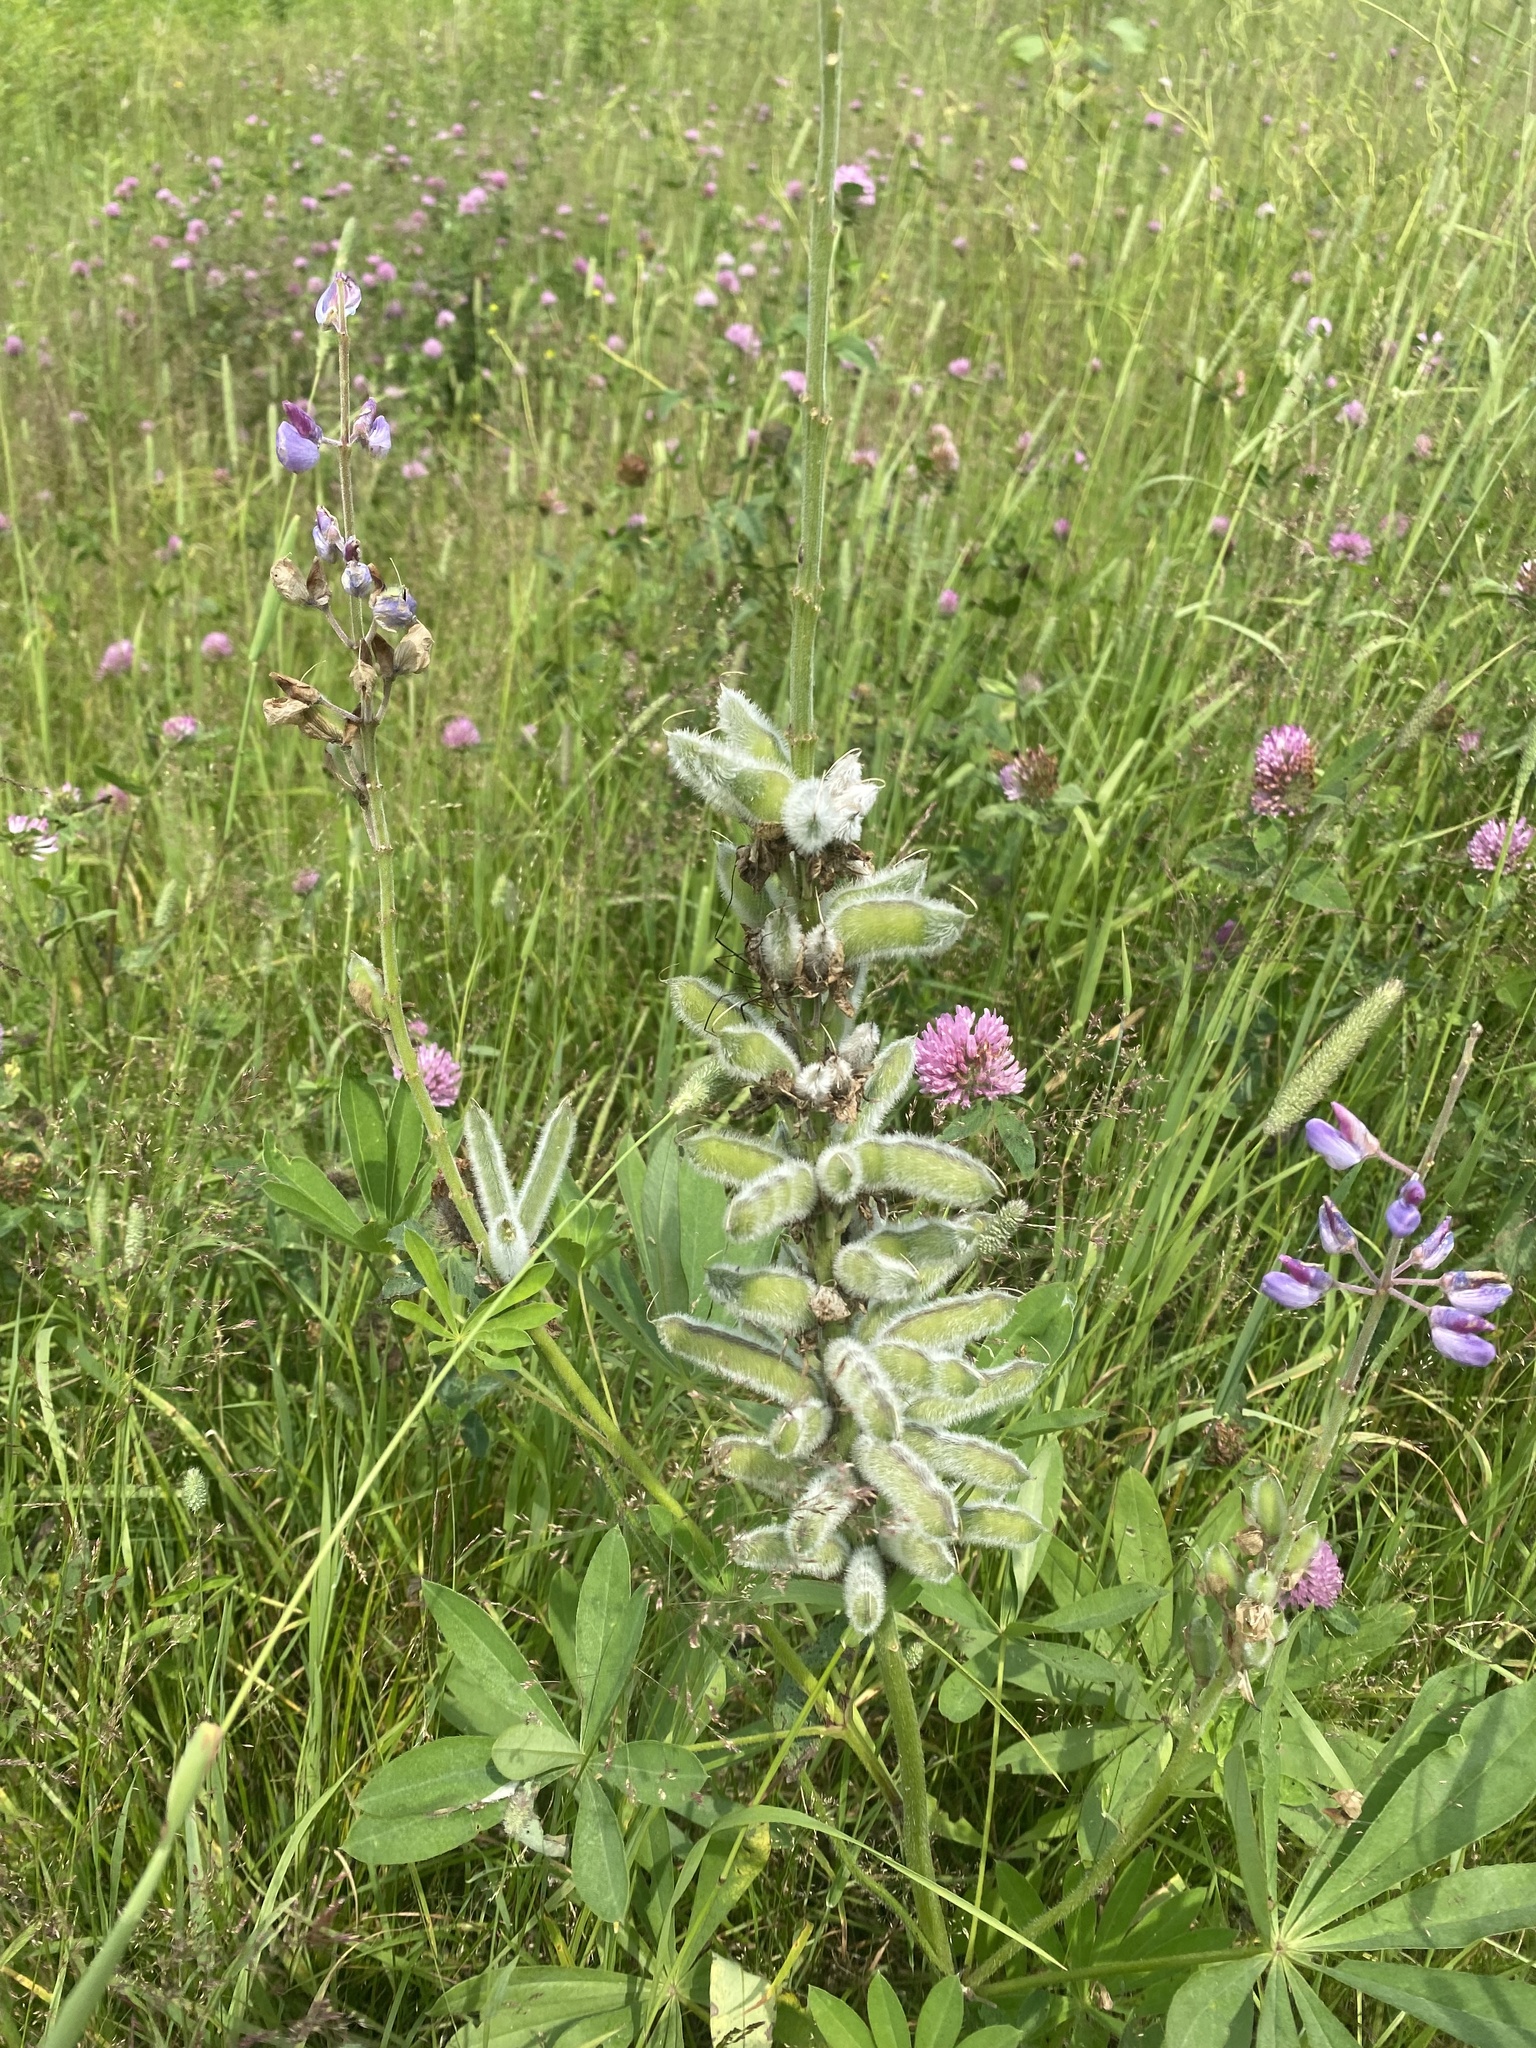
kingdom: Plantae
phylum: Tracheophyta
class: Magnoliopsida
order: Fabales
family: Fabaceae
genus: Lupinus
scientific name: Lupinus polyphyllus
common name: Garden lupin
